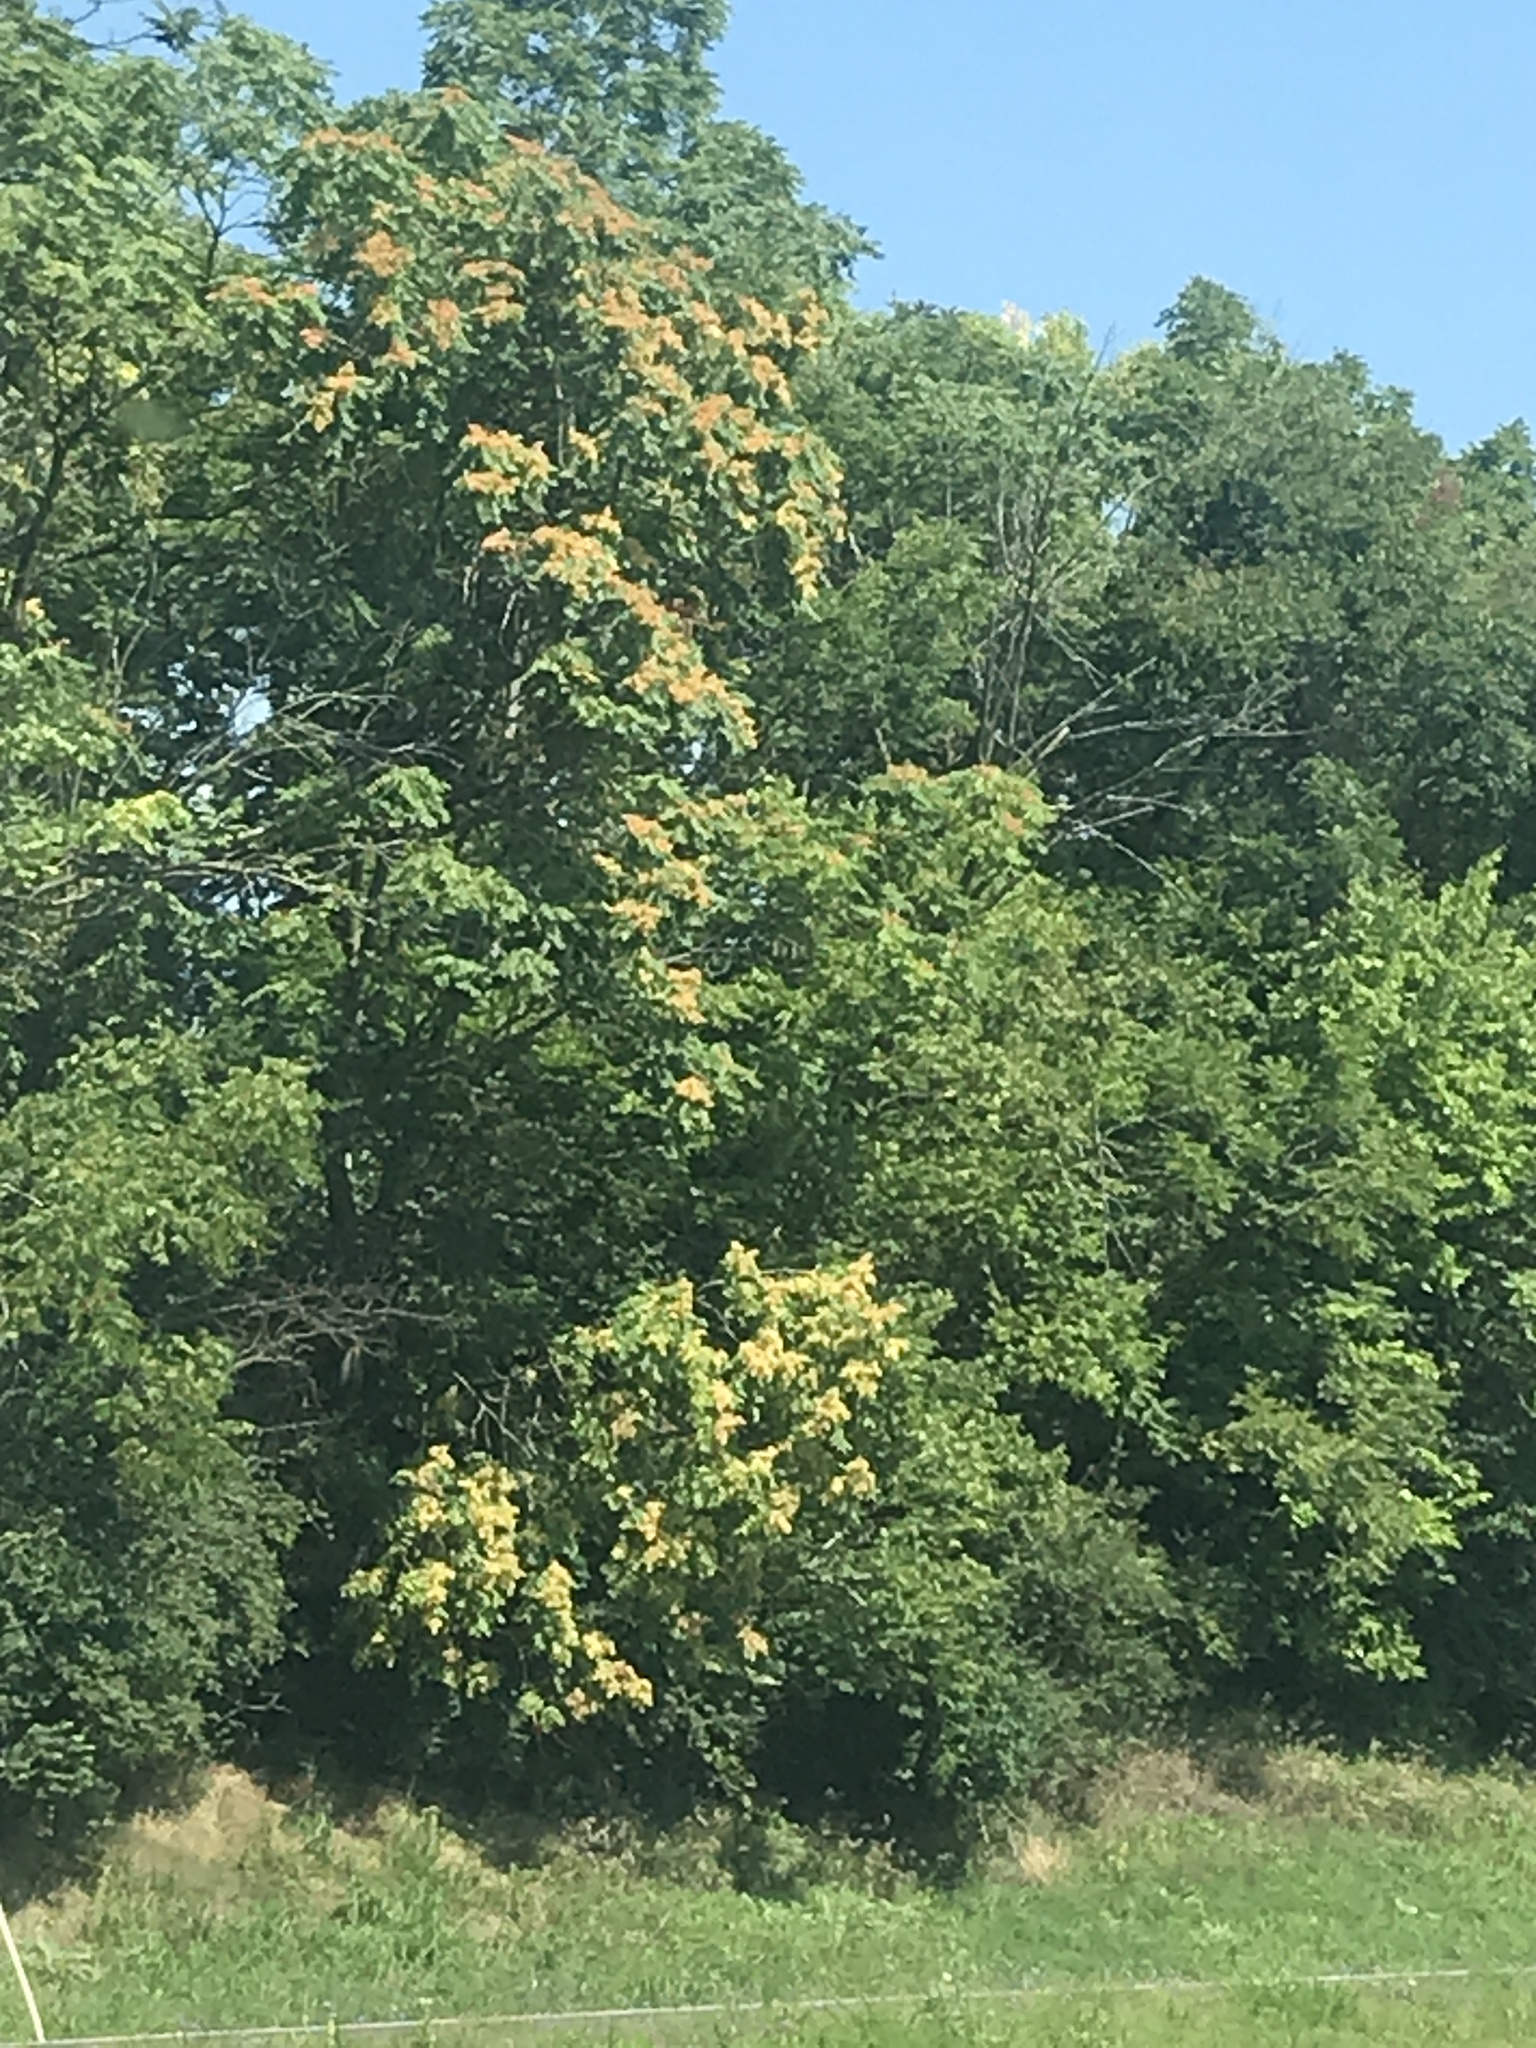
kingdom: Plantae
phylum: Tracheophyta
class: Magnoliopsida
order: Sapindales
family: Simaroubaceae
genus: Ailanthus
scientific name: Ailanthus altissima
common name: Tree-of-heaven
